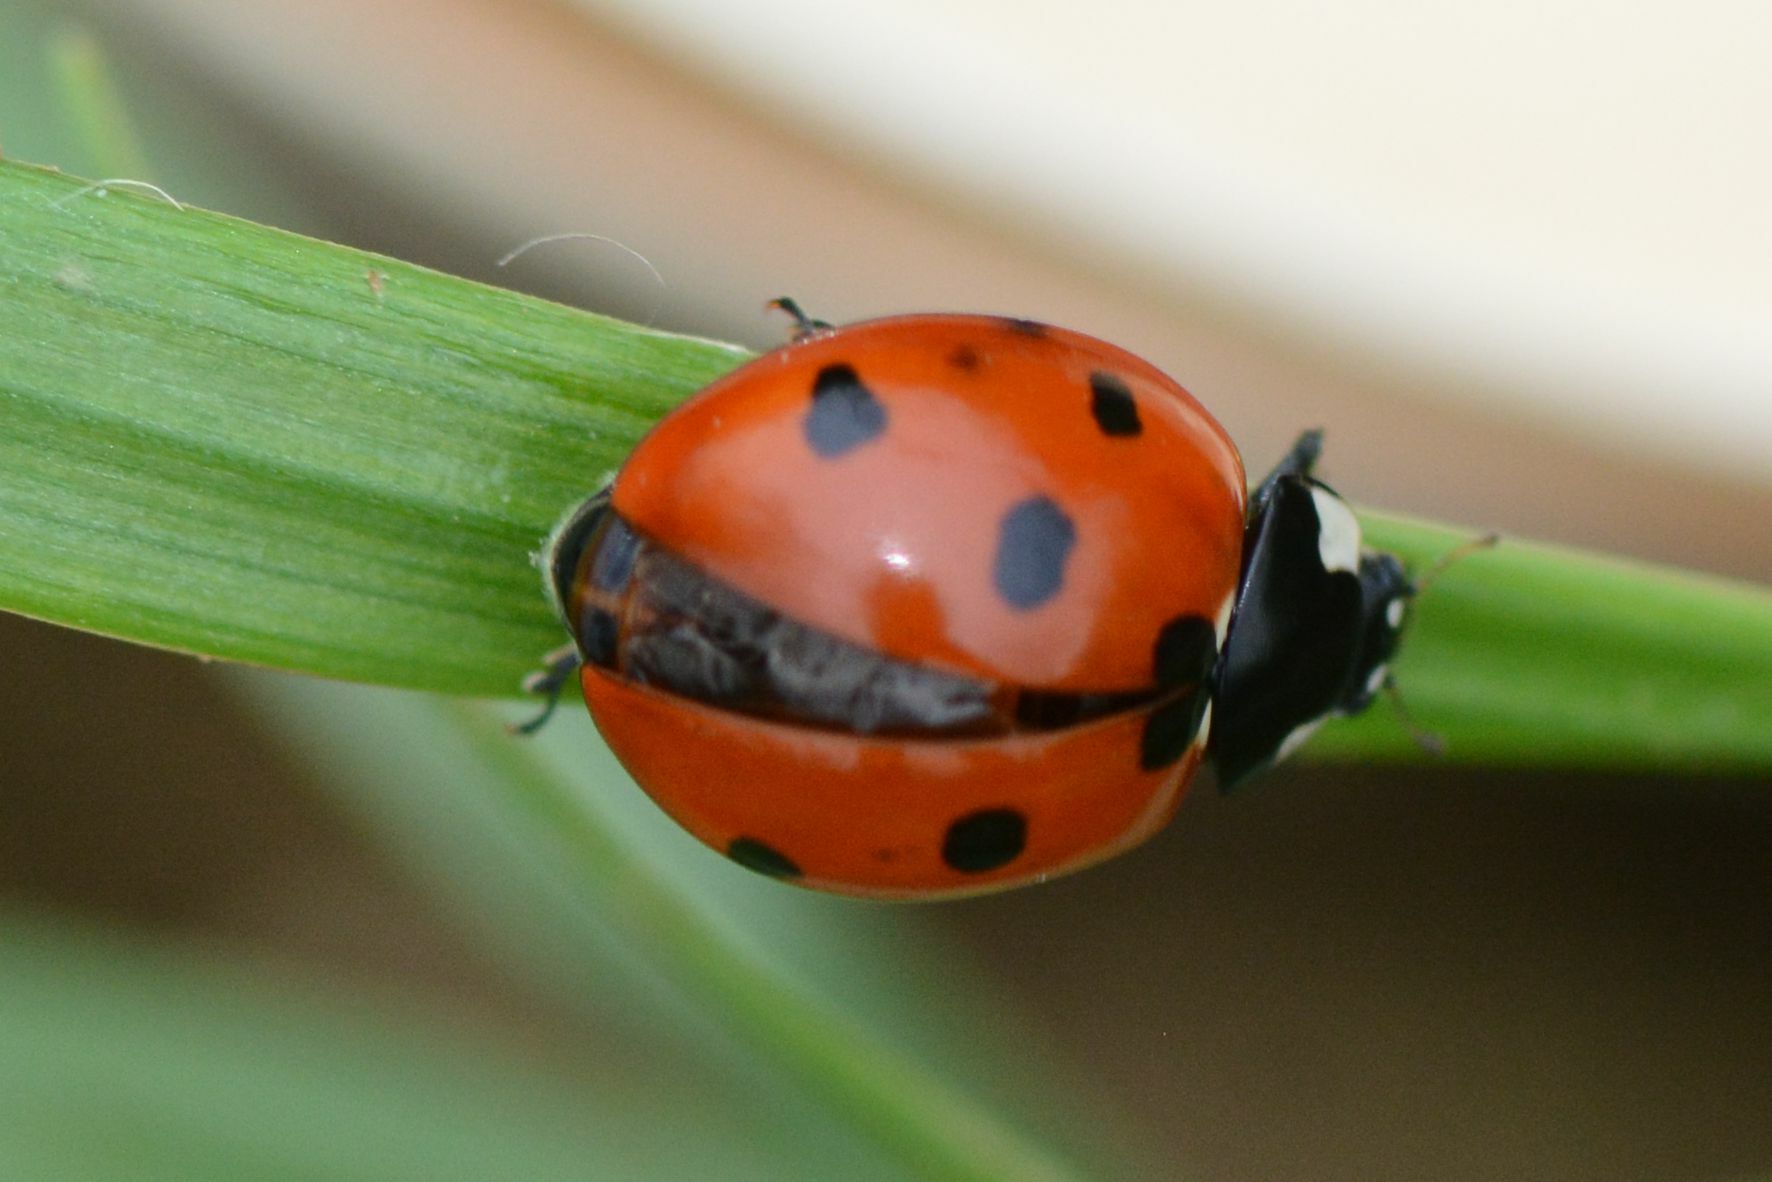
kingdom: Animalia
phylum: Arthropoda
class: Insecta
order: Coleoptera
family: Coccinellidae
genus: Coccinella
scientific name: Coccinella septempunctata
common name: Sevenspotted lady beetle
